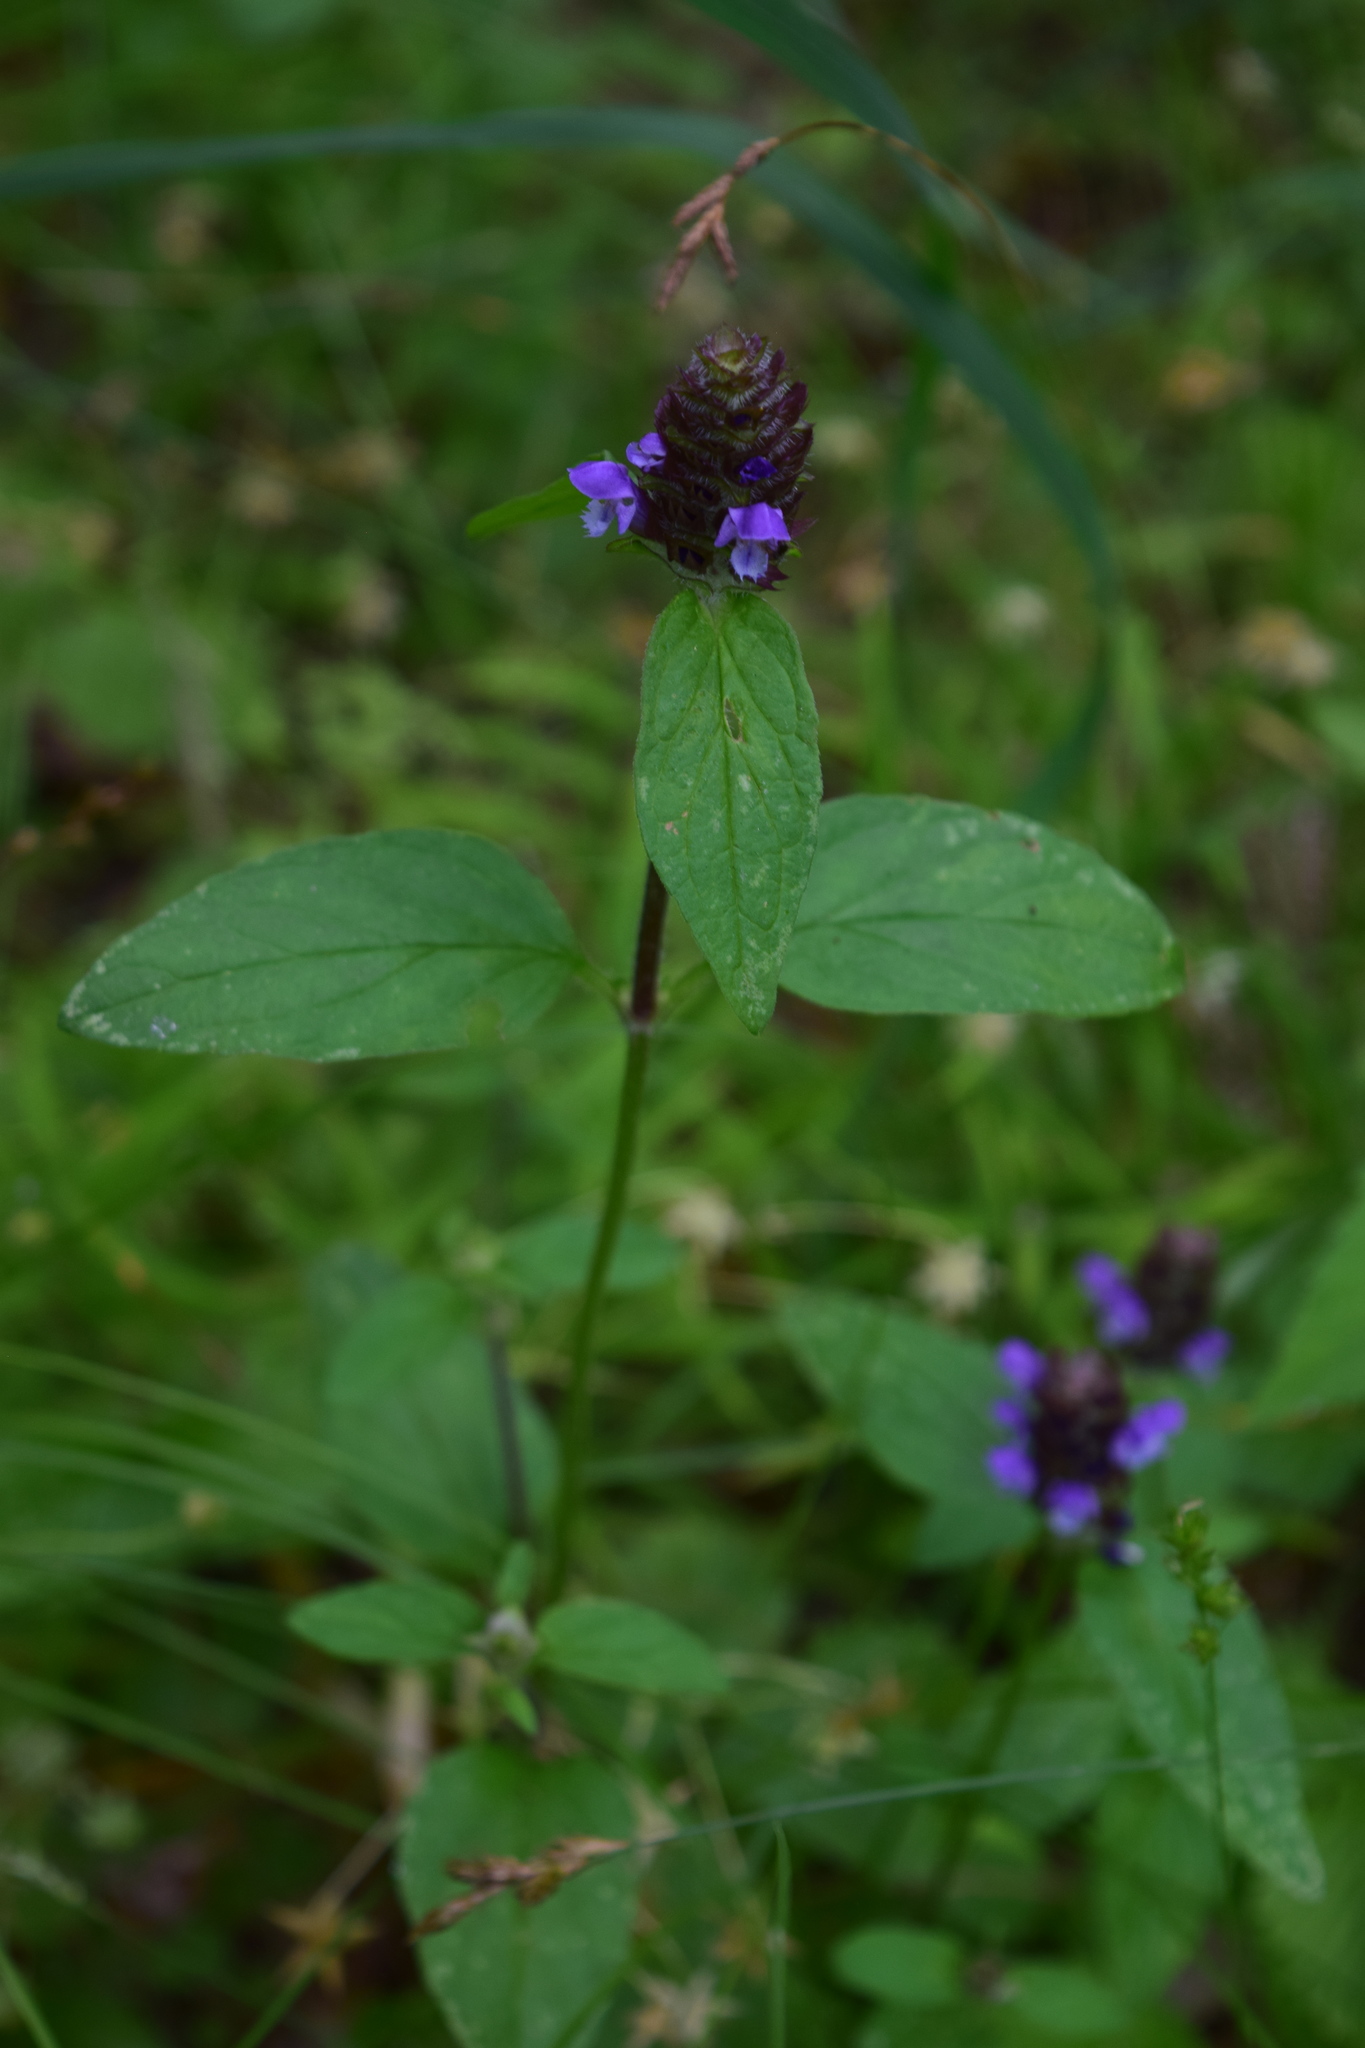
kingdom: Plantae
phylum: Tracheophyta
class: Magnoliopsida
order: Lamiales
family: Lamiaceae
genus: Prunella
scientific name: Prunella vulgaris
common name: Heal-all
